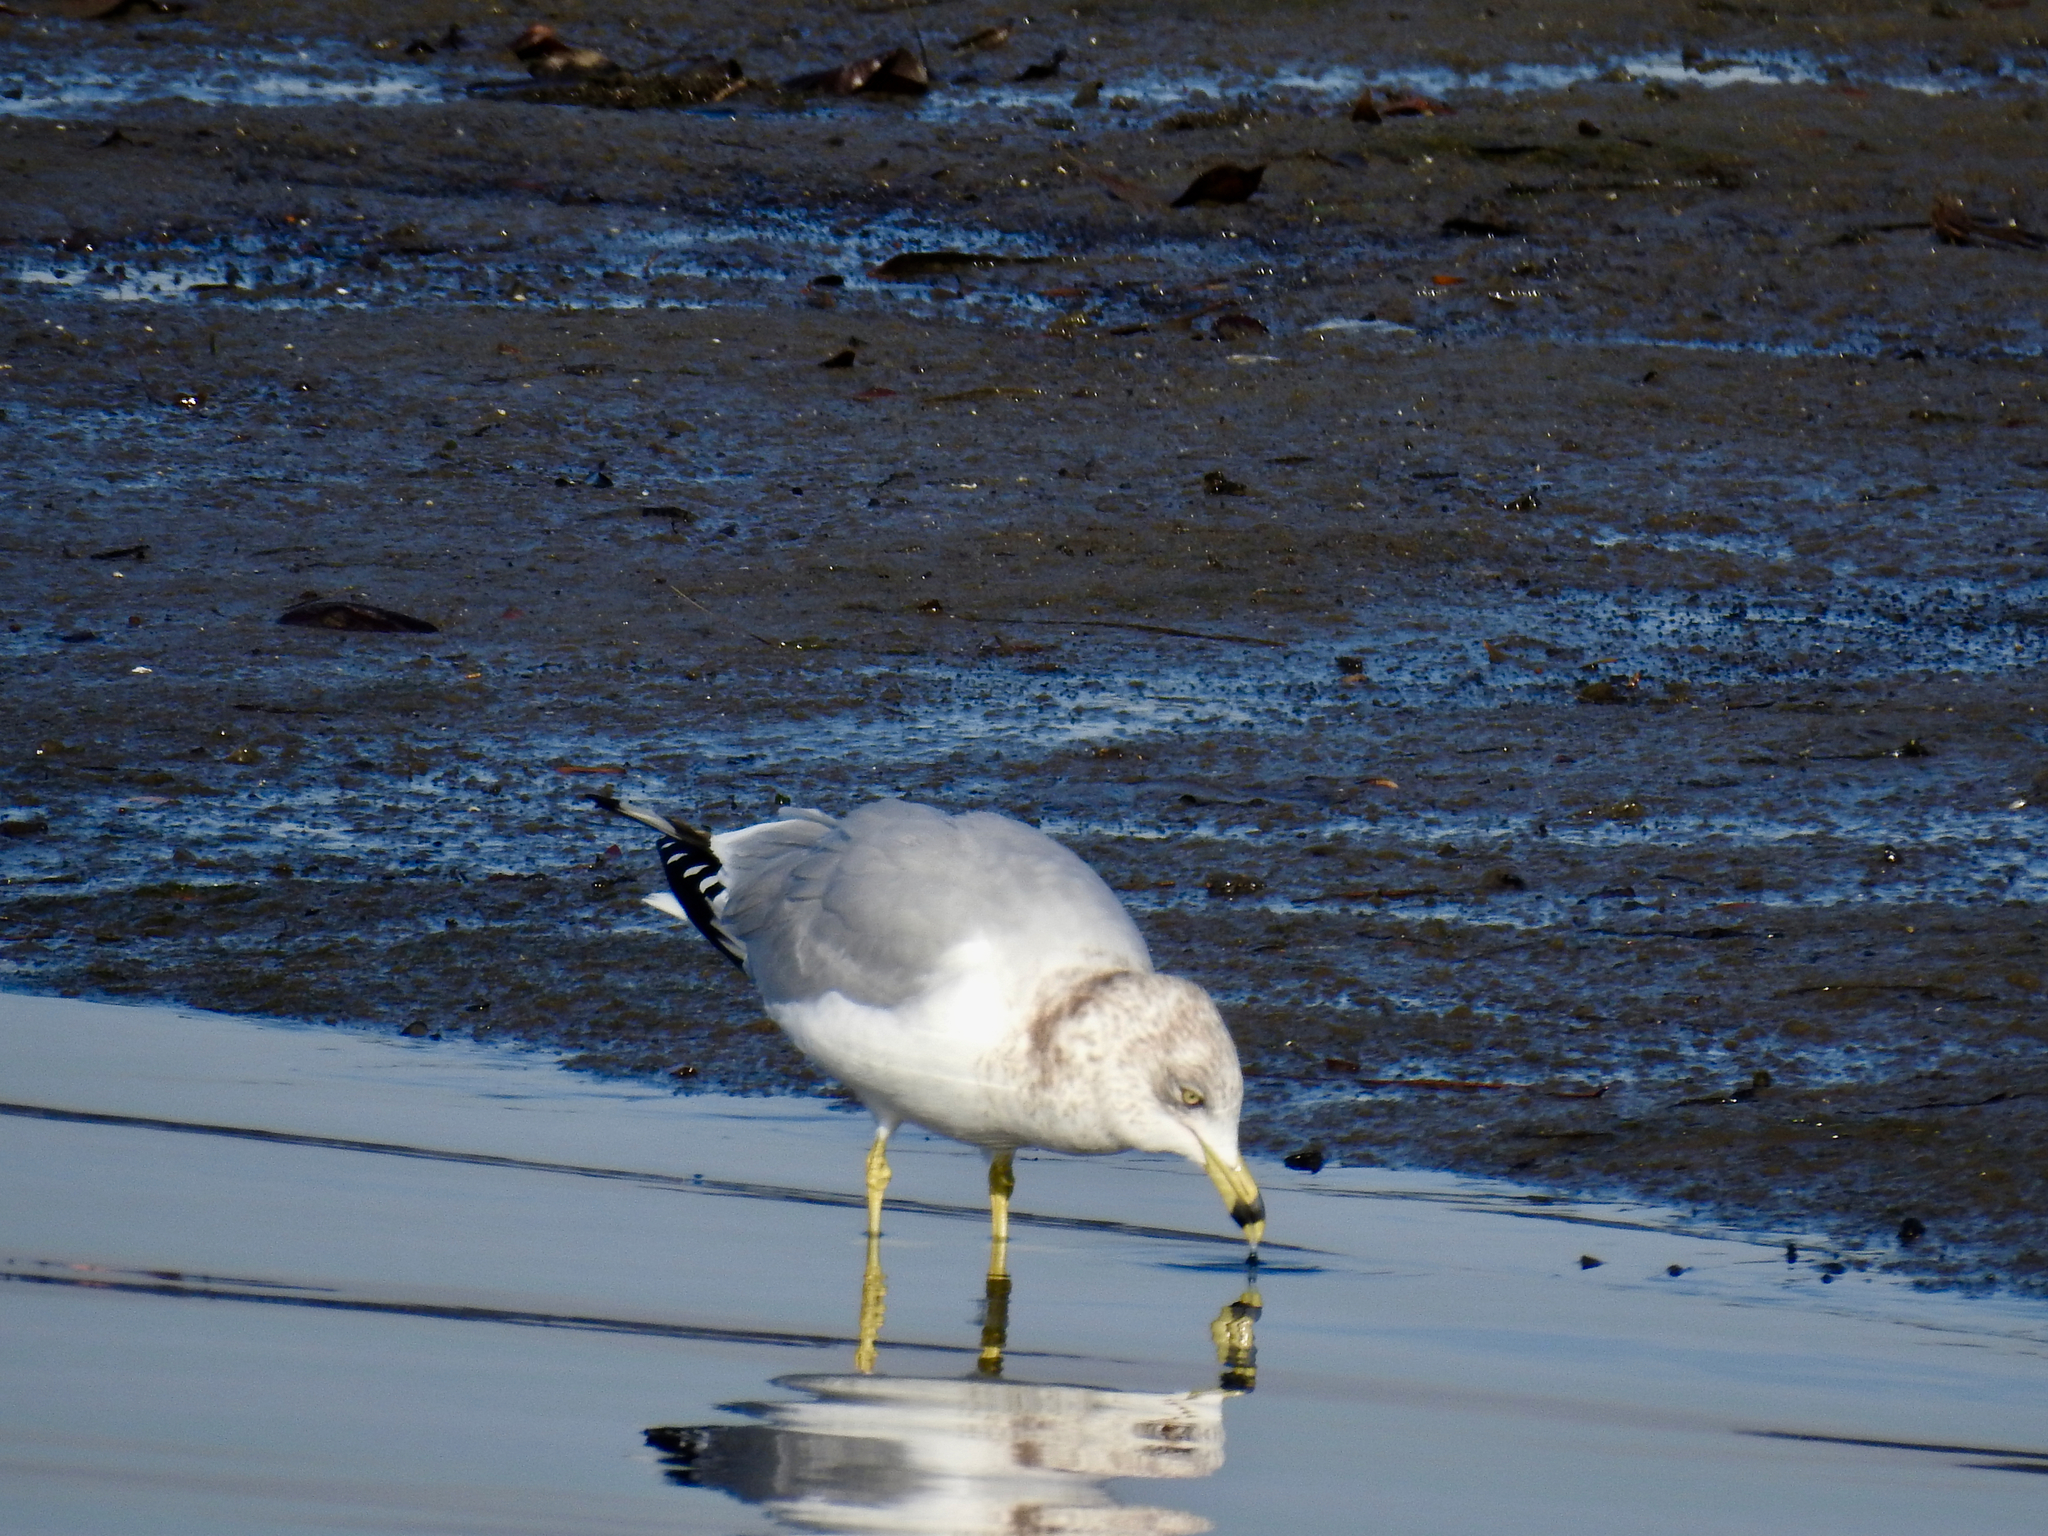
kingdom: Animalia
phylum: Chordata
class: Aves
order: Charadriiformes
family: Laridae
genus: Larus
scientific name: Larus delawarensis
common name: Ring-billed gull
